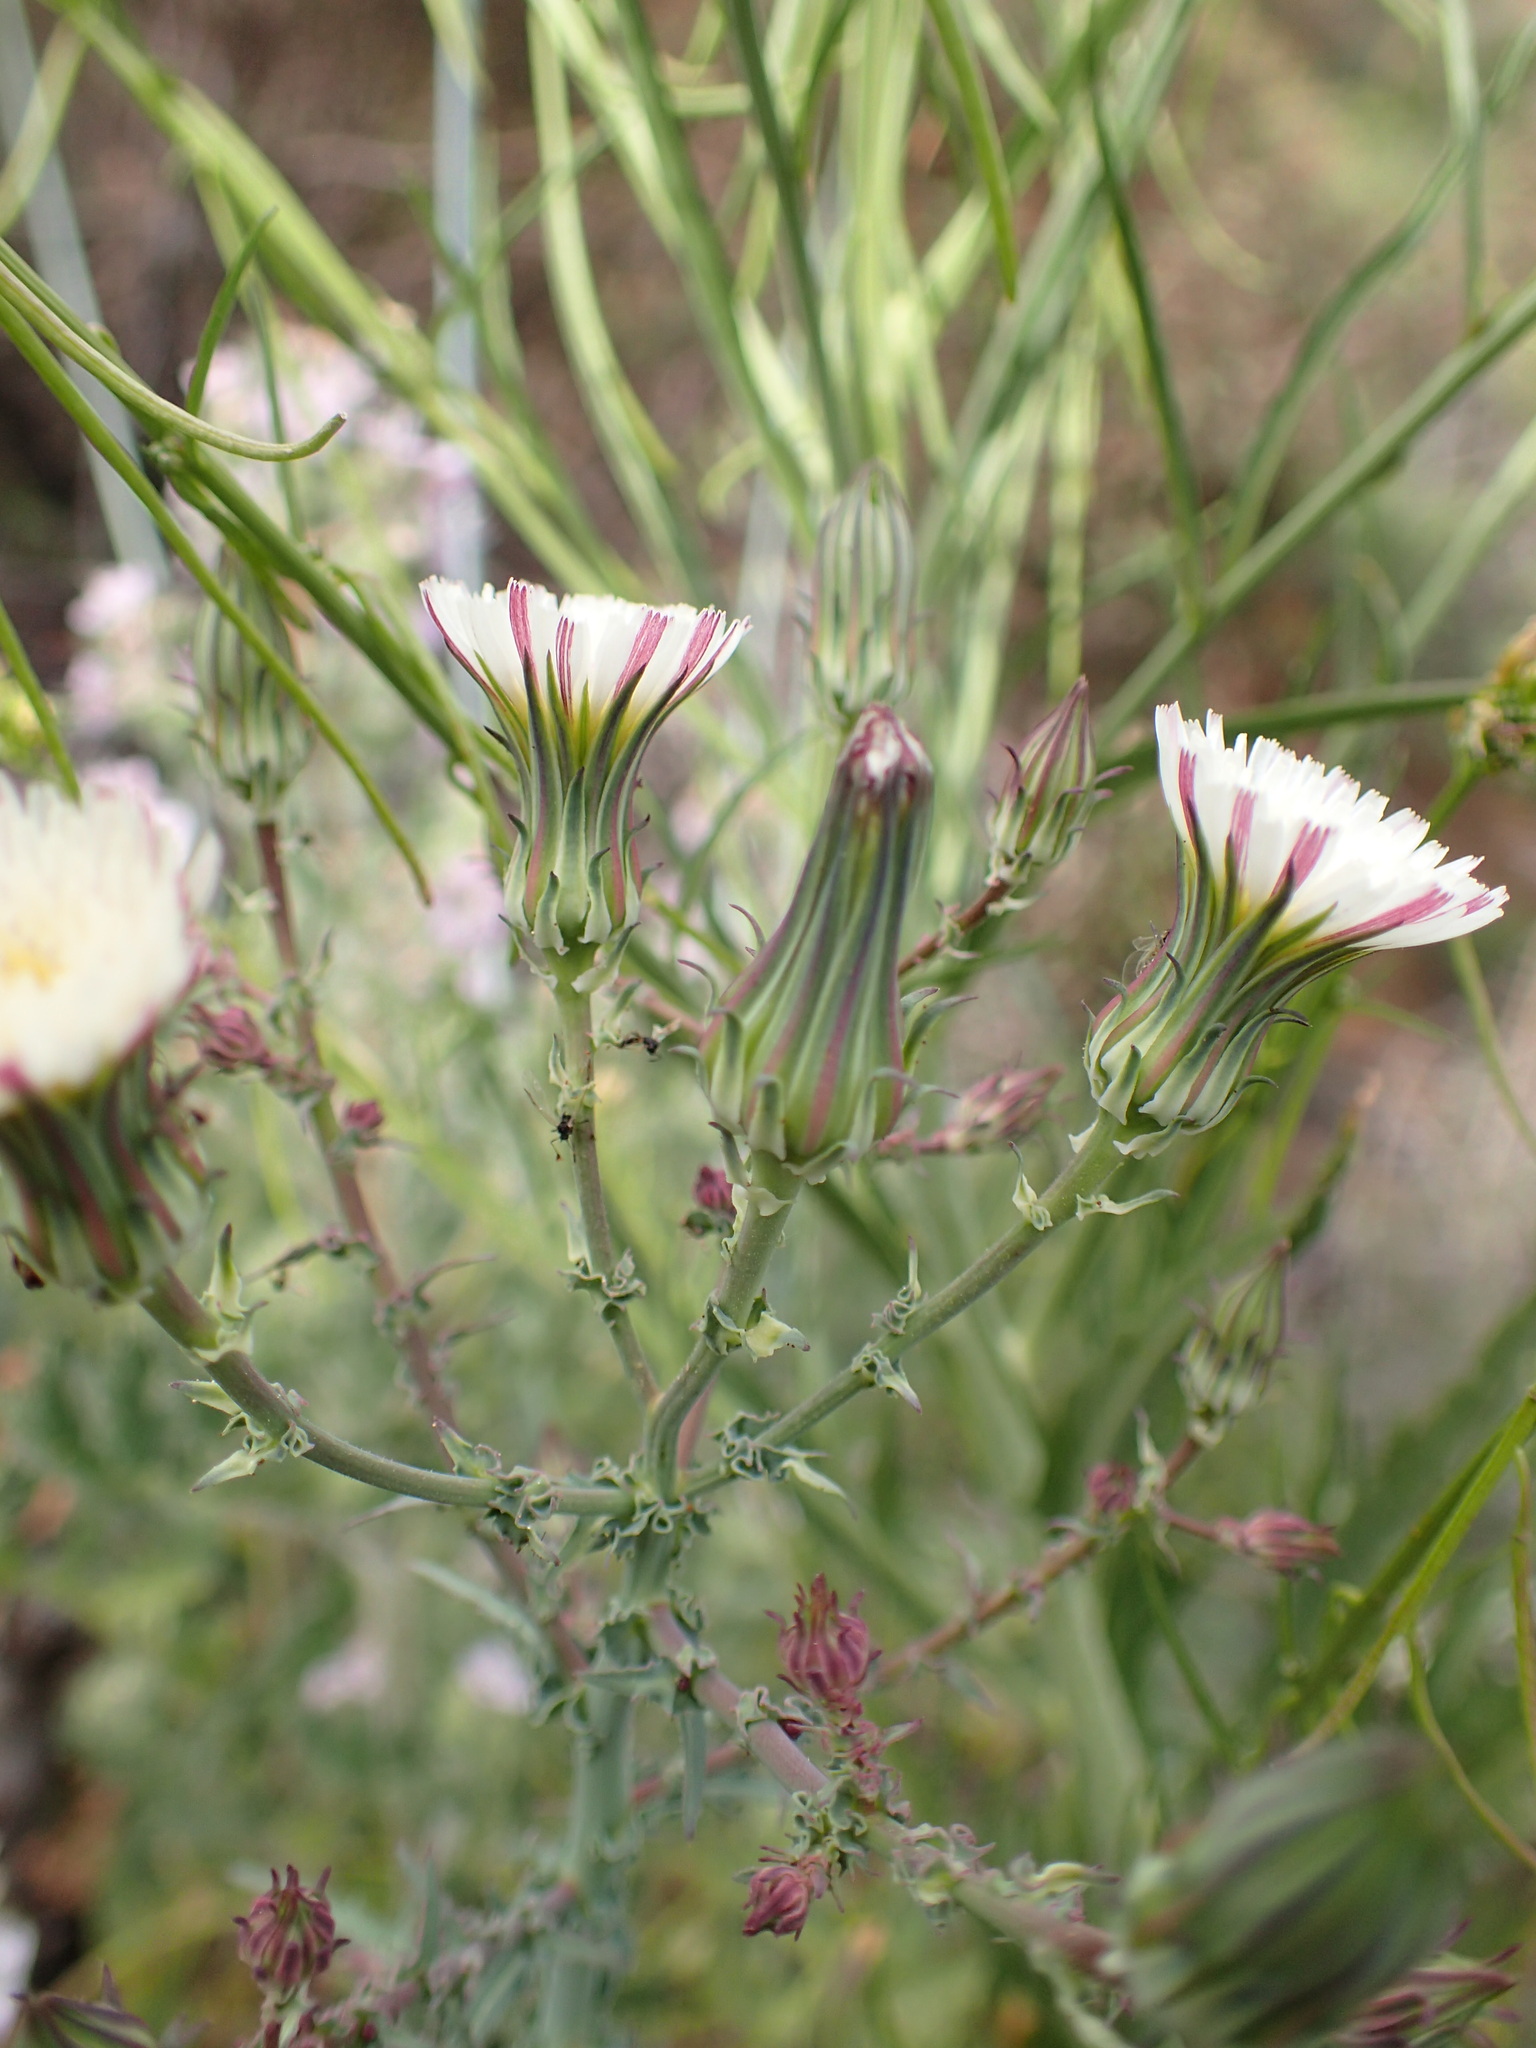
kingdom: Plantae
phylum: Tracheophyta
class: Magnoliopsida
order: Asterales
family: Asteraceae
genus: Rafinesquia
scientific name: Rafinesquia californica
